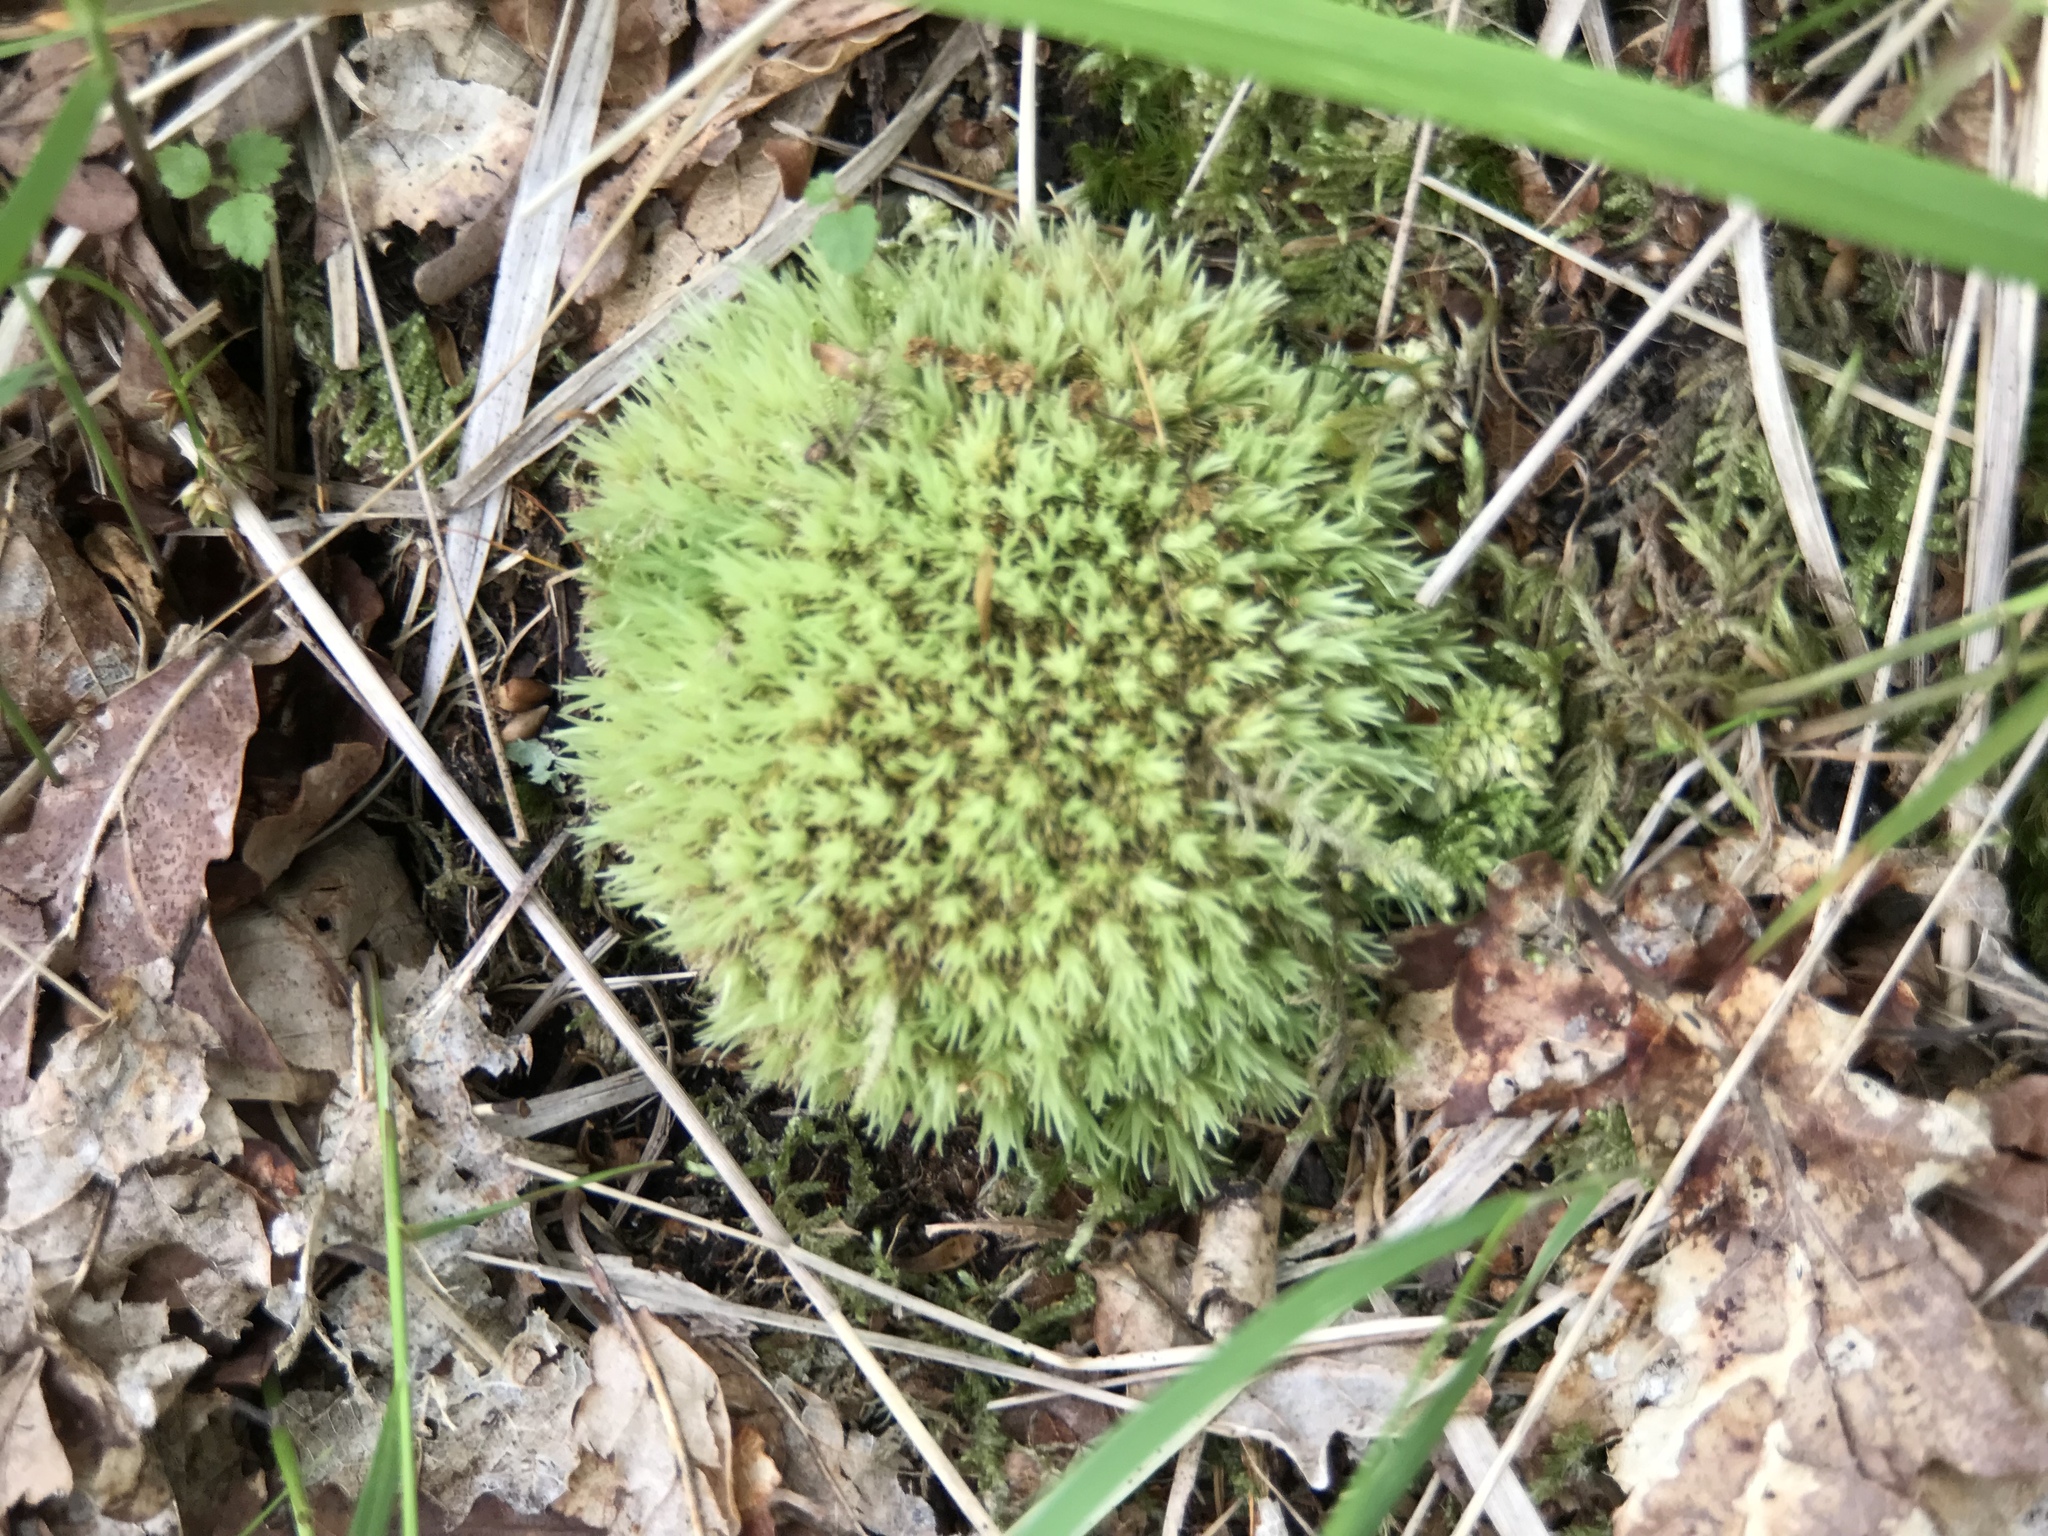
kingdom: Plantae
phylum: Bryophyta
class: Bryopsida
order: Dicranales
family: Leucobryaceae
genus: Leucobryum
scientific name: Leucobryum glaucum
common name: Large white-moss
